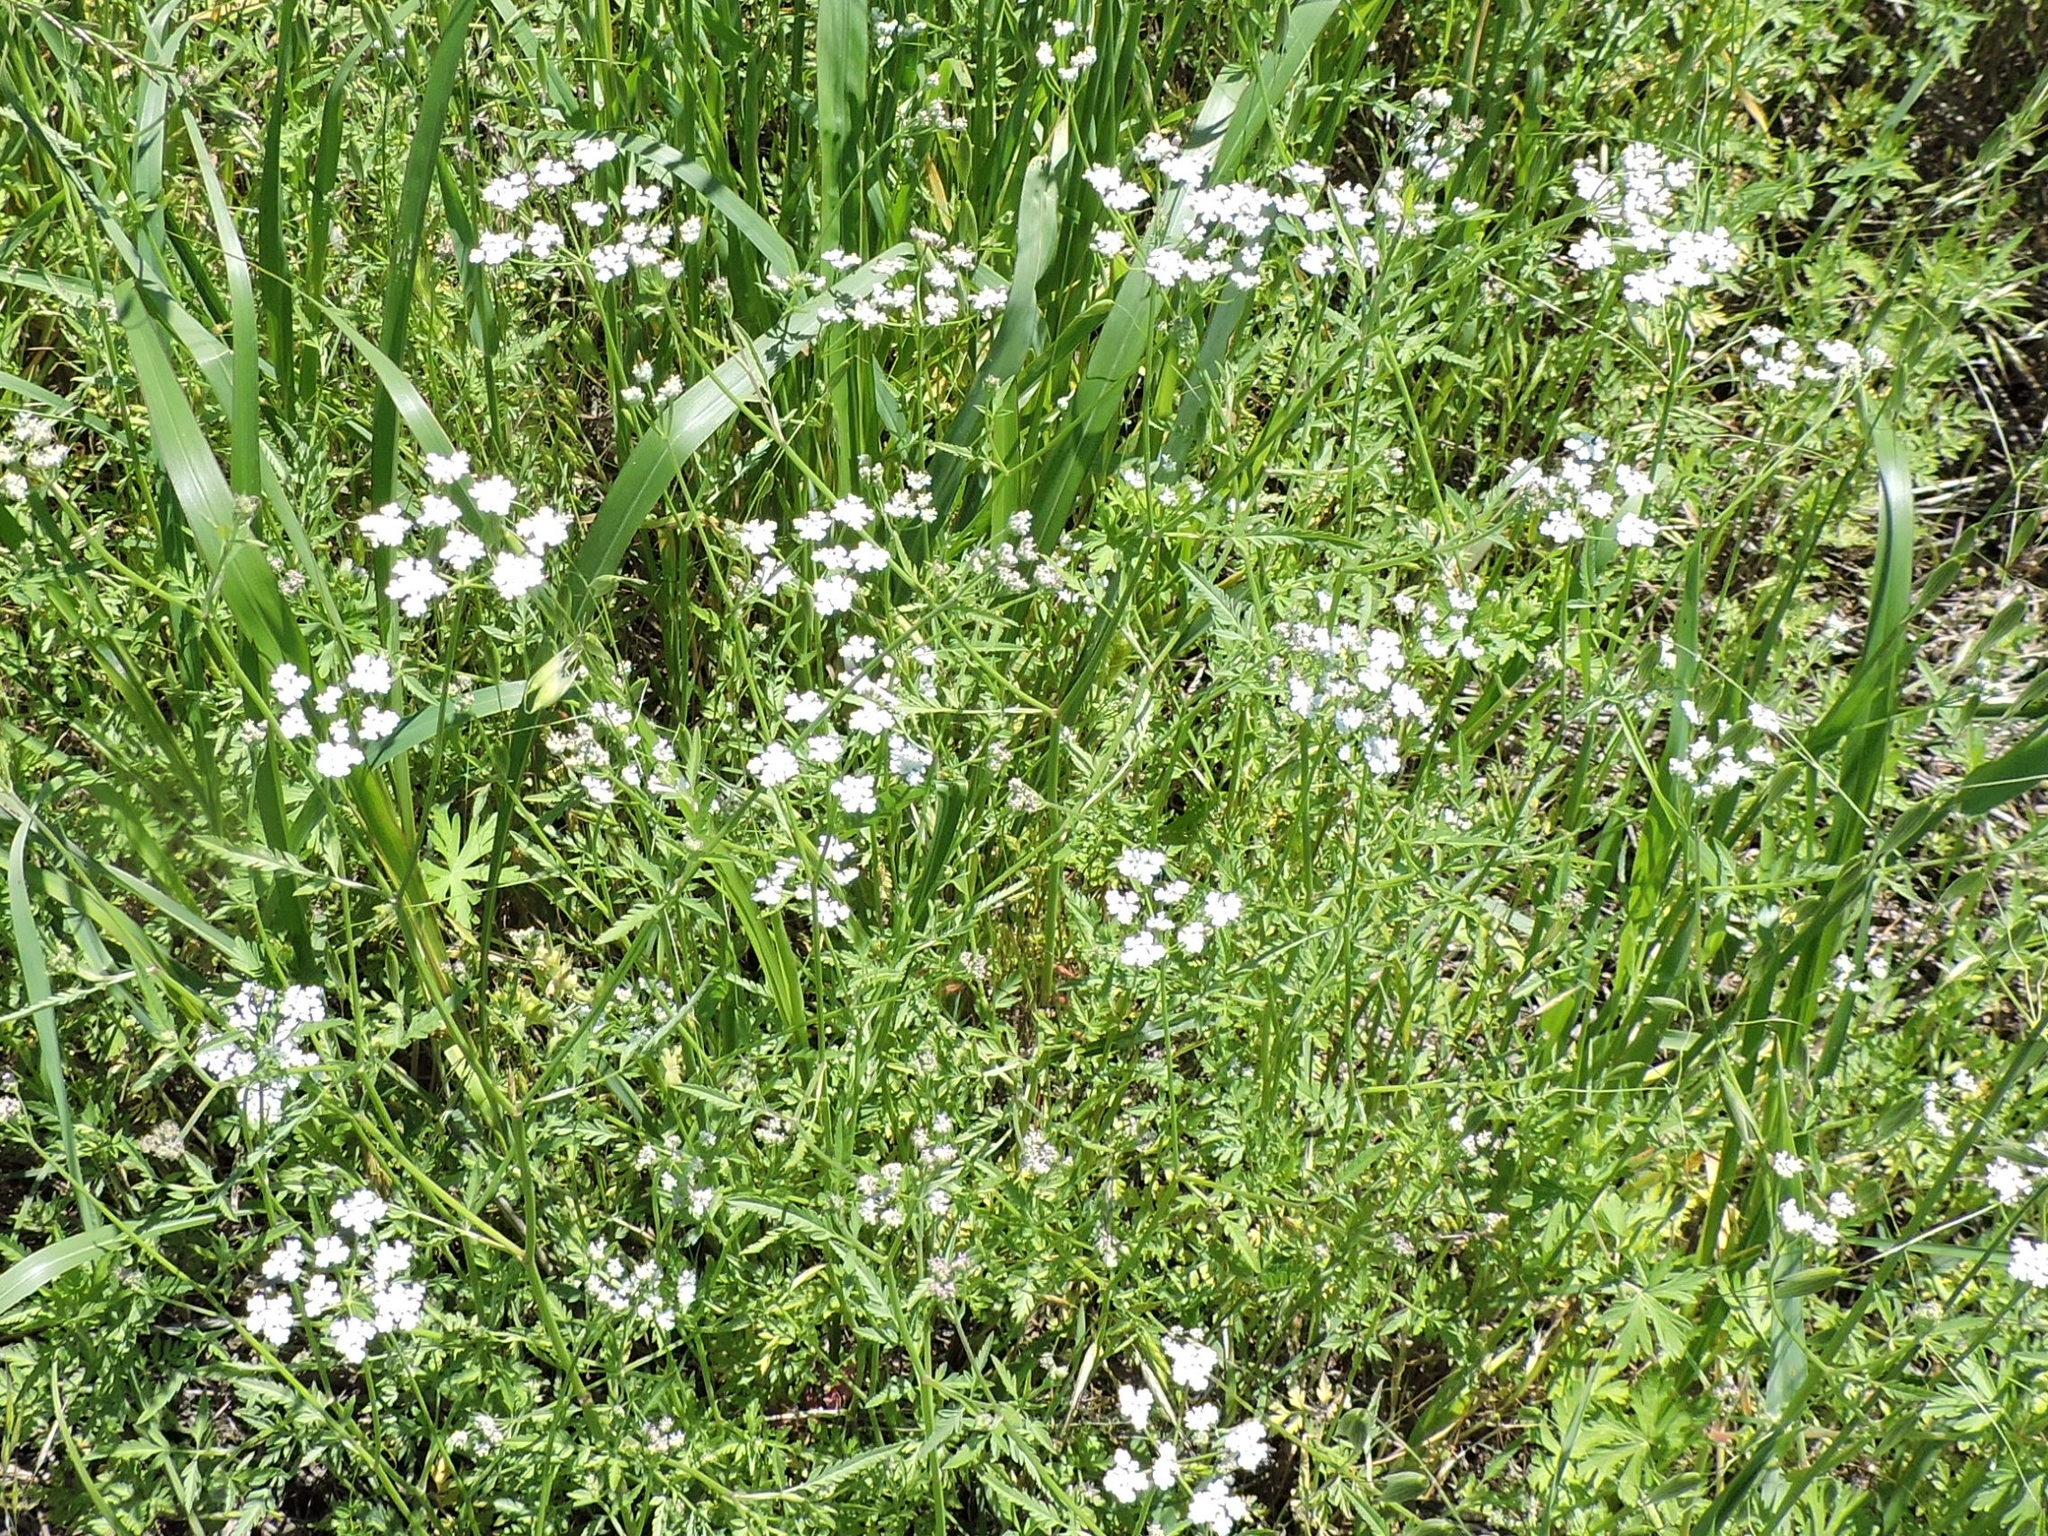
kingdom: Plantae
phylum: Tracheophyta
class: Magnoliopsida
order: Apiales
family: Apiaceae
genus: Torilis
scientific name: Torilis arvensis
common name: Spreading hedge-parsley
